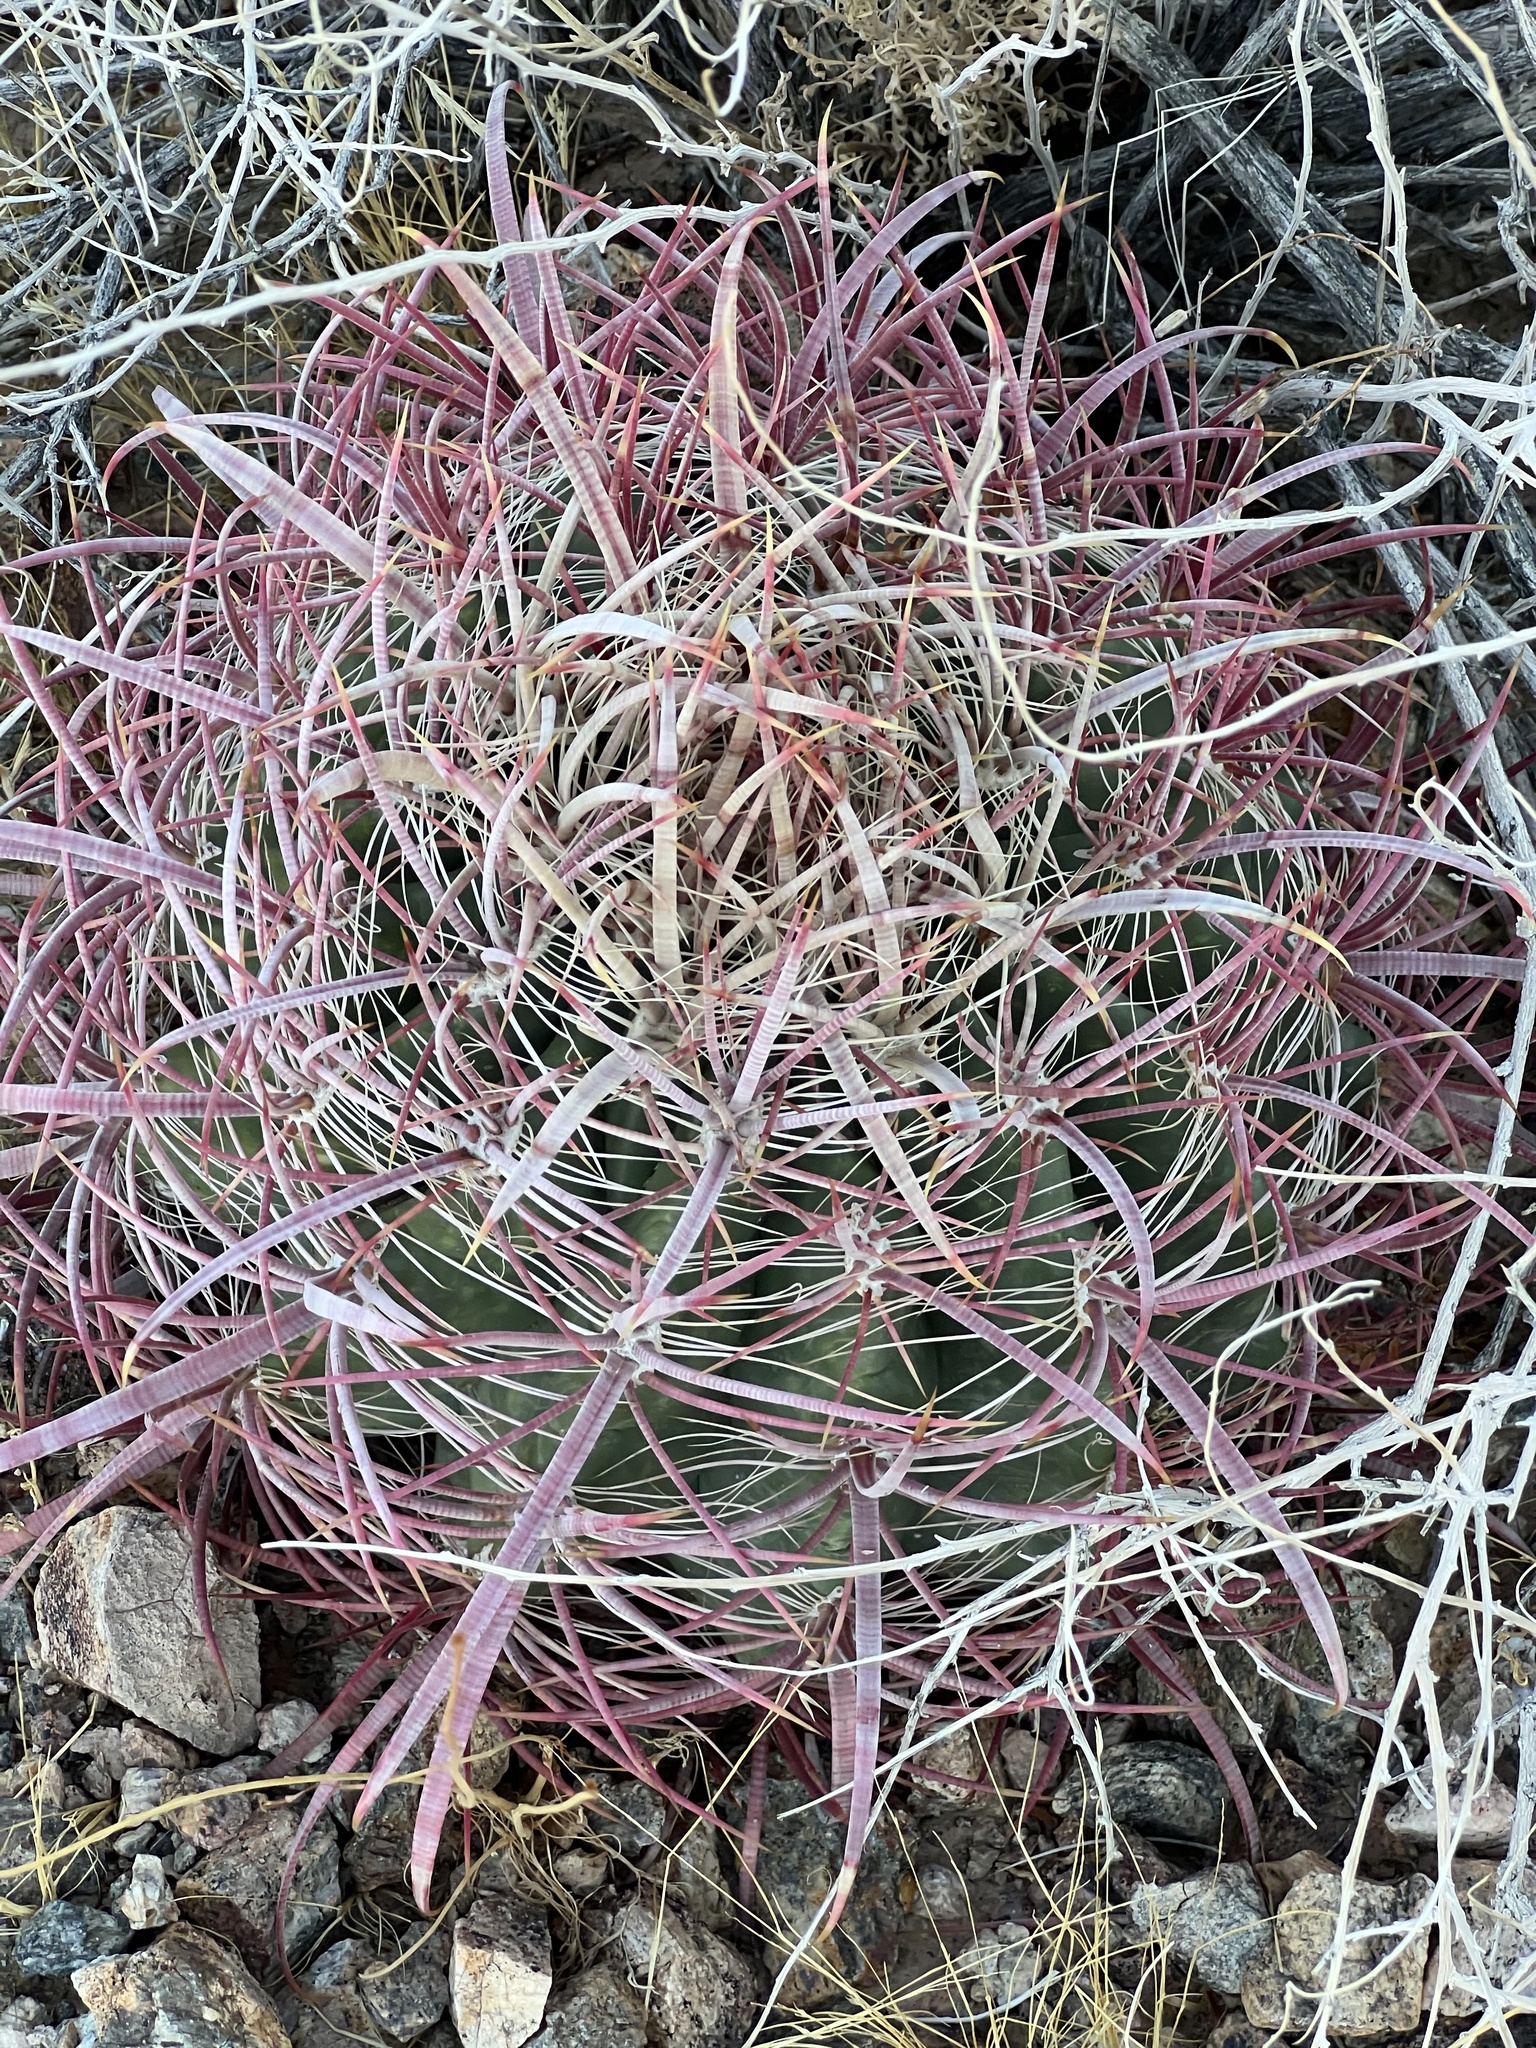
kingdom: Plantae
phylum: Tracheophyta
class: Magnoliopsida
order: Caryophyllales
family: Cactaceae
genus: Ferocactus
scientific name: Ferocactus cylindraceus
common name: California barrel cactus
